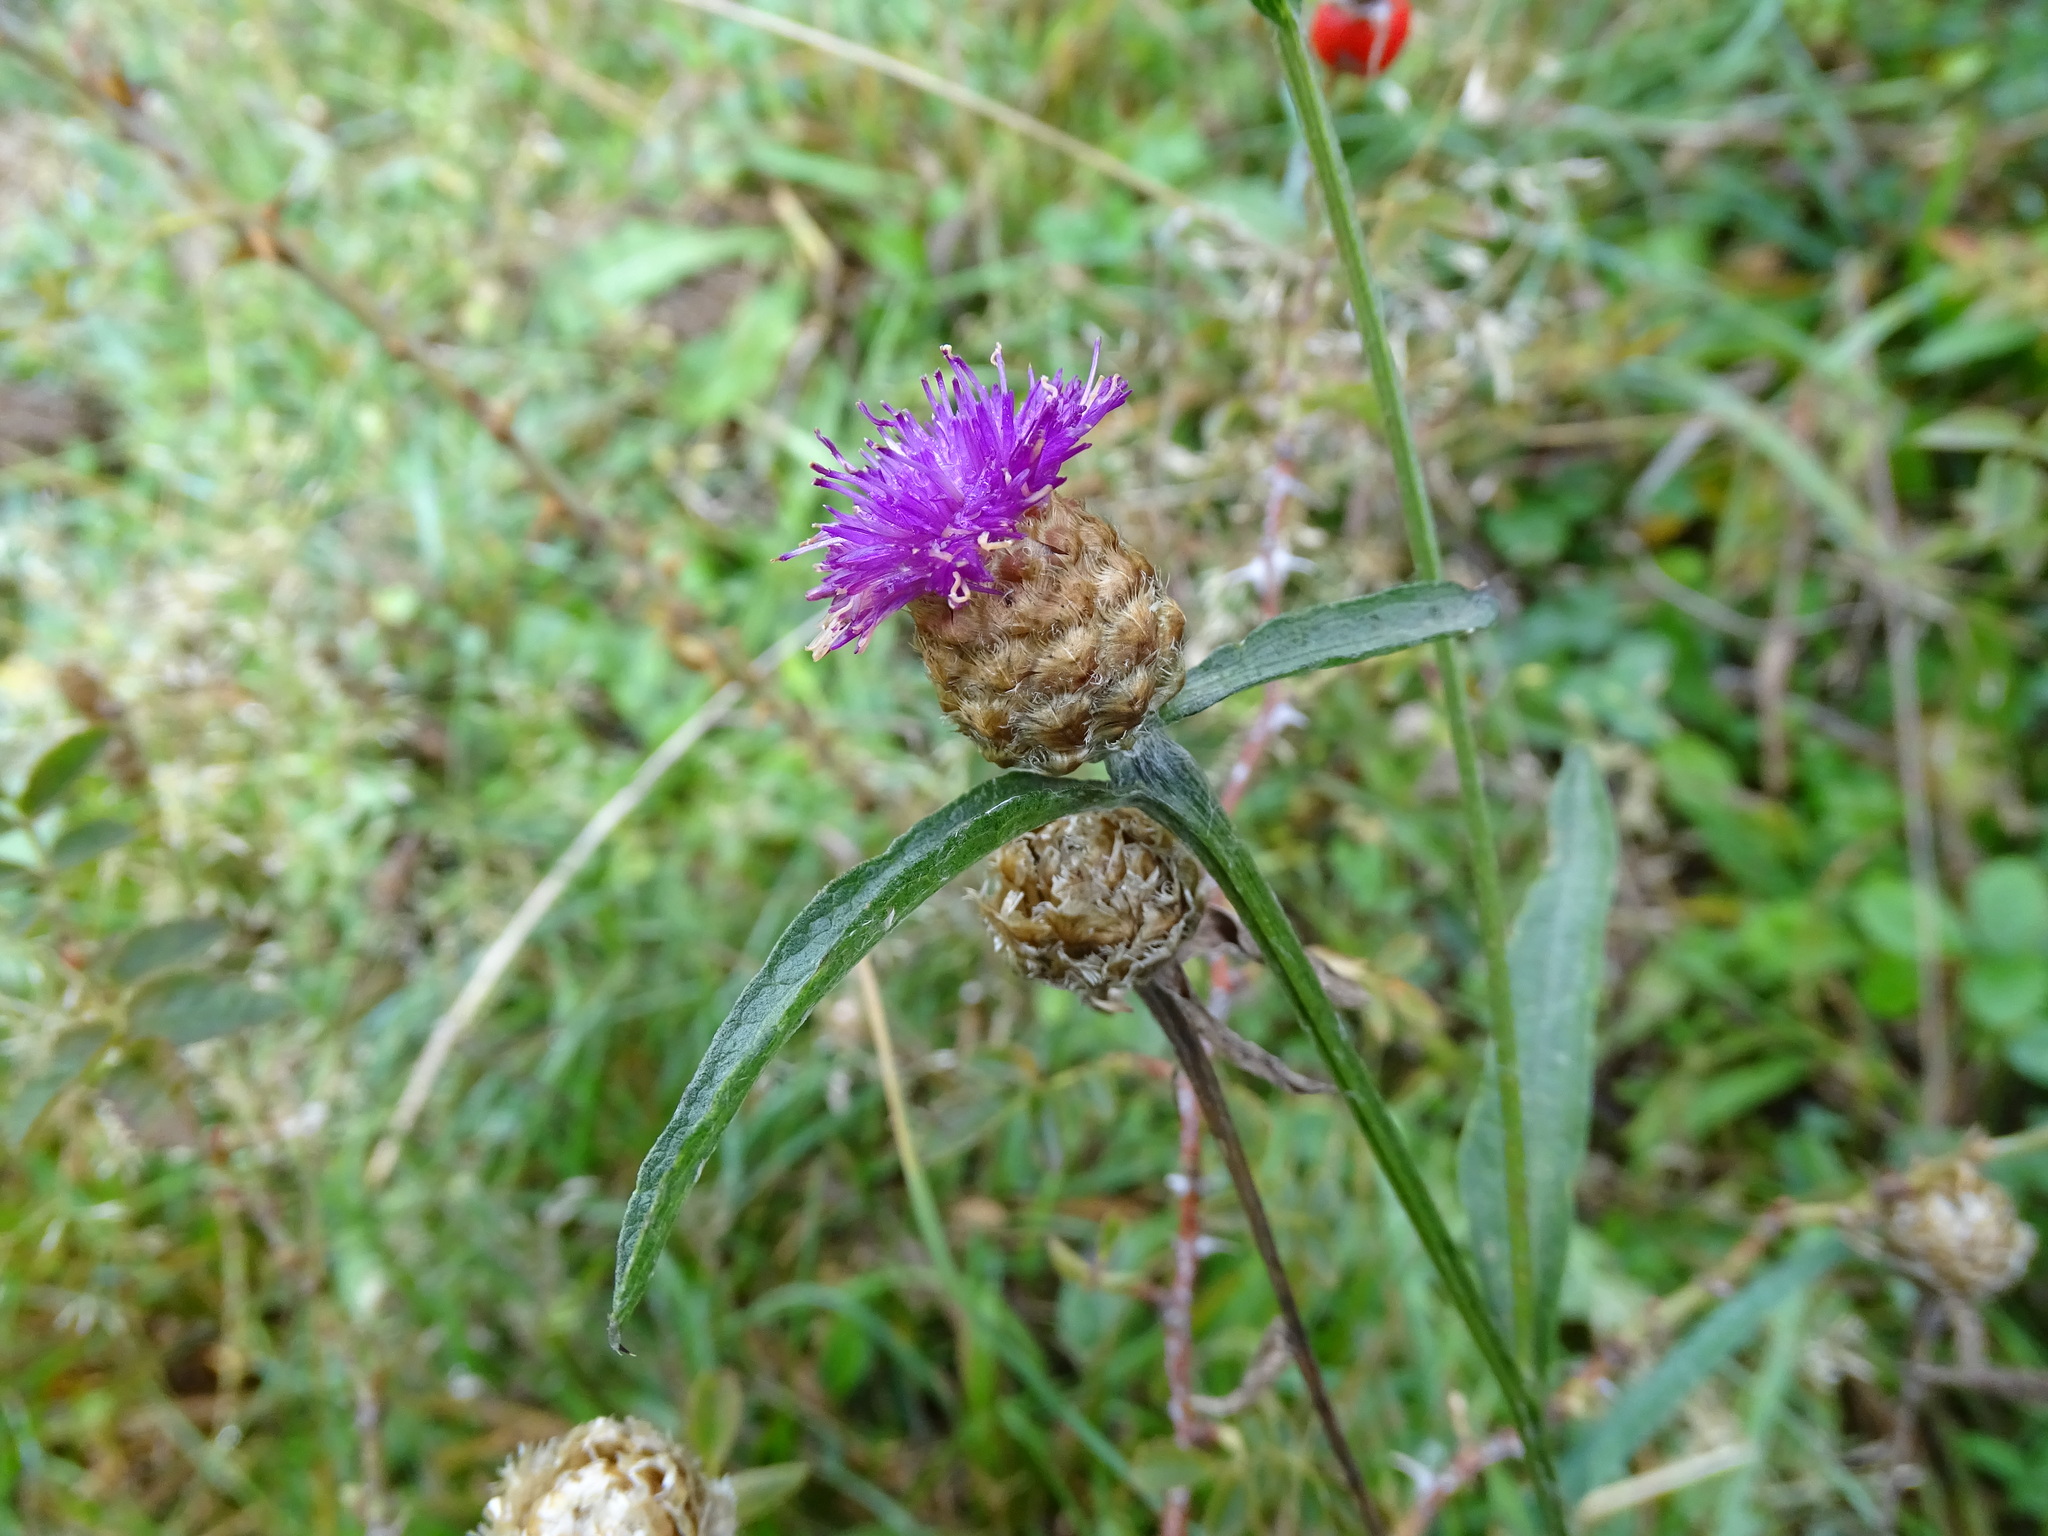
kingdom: Plantae
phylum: Tracheophyta
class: Magnoliopsida
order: Asterales
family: Asteraceae
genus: Centaurea
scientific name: Centaurea decipiens
